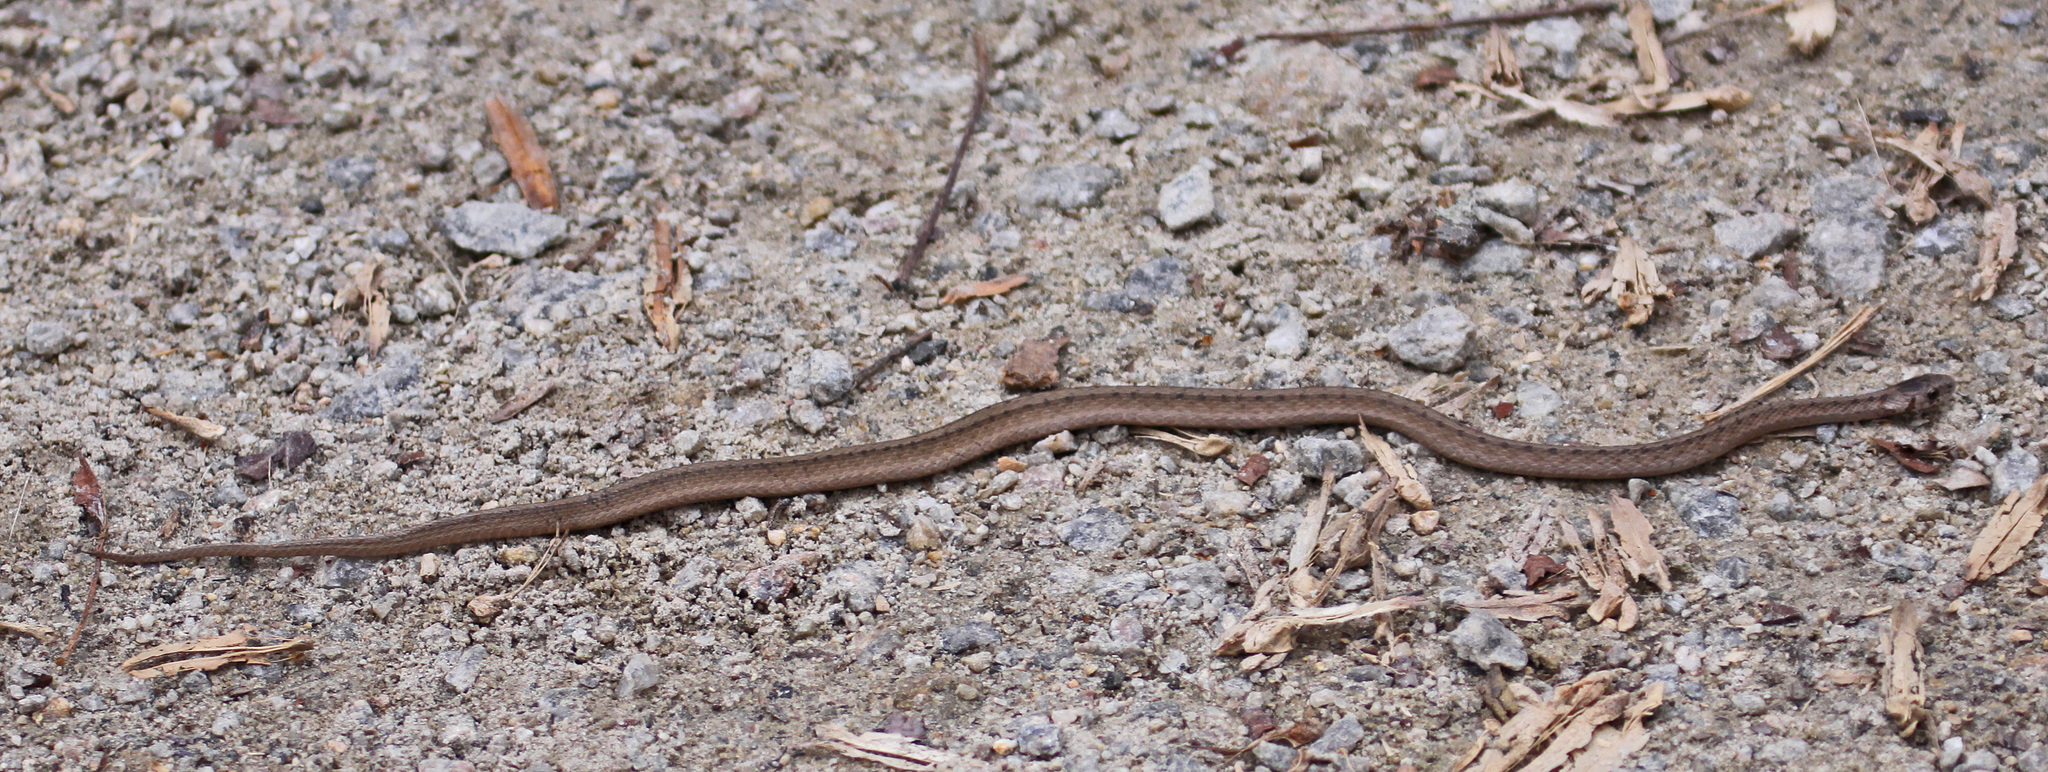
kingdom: Animalia
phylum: Chordata
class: Squamata
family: Colubridae
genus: Storeria
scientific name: Storeria dekayi
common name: (dekay’s) brown snake
